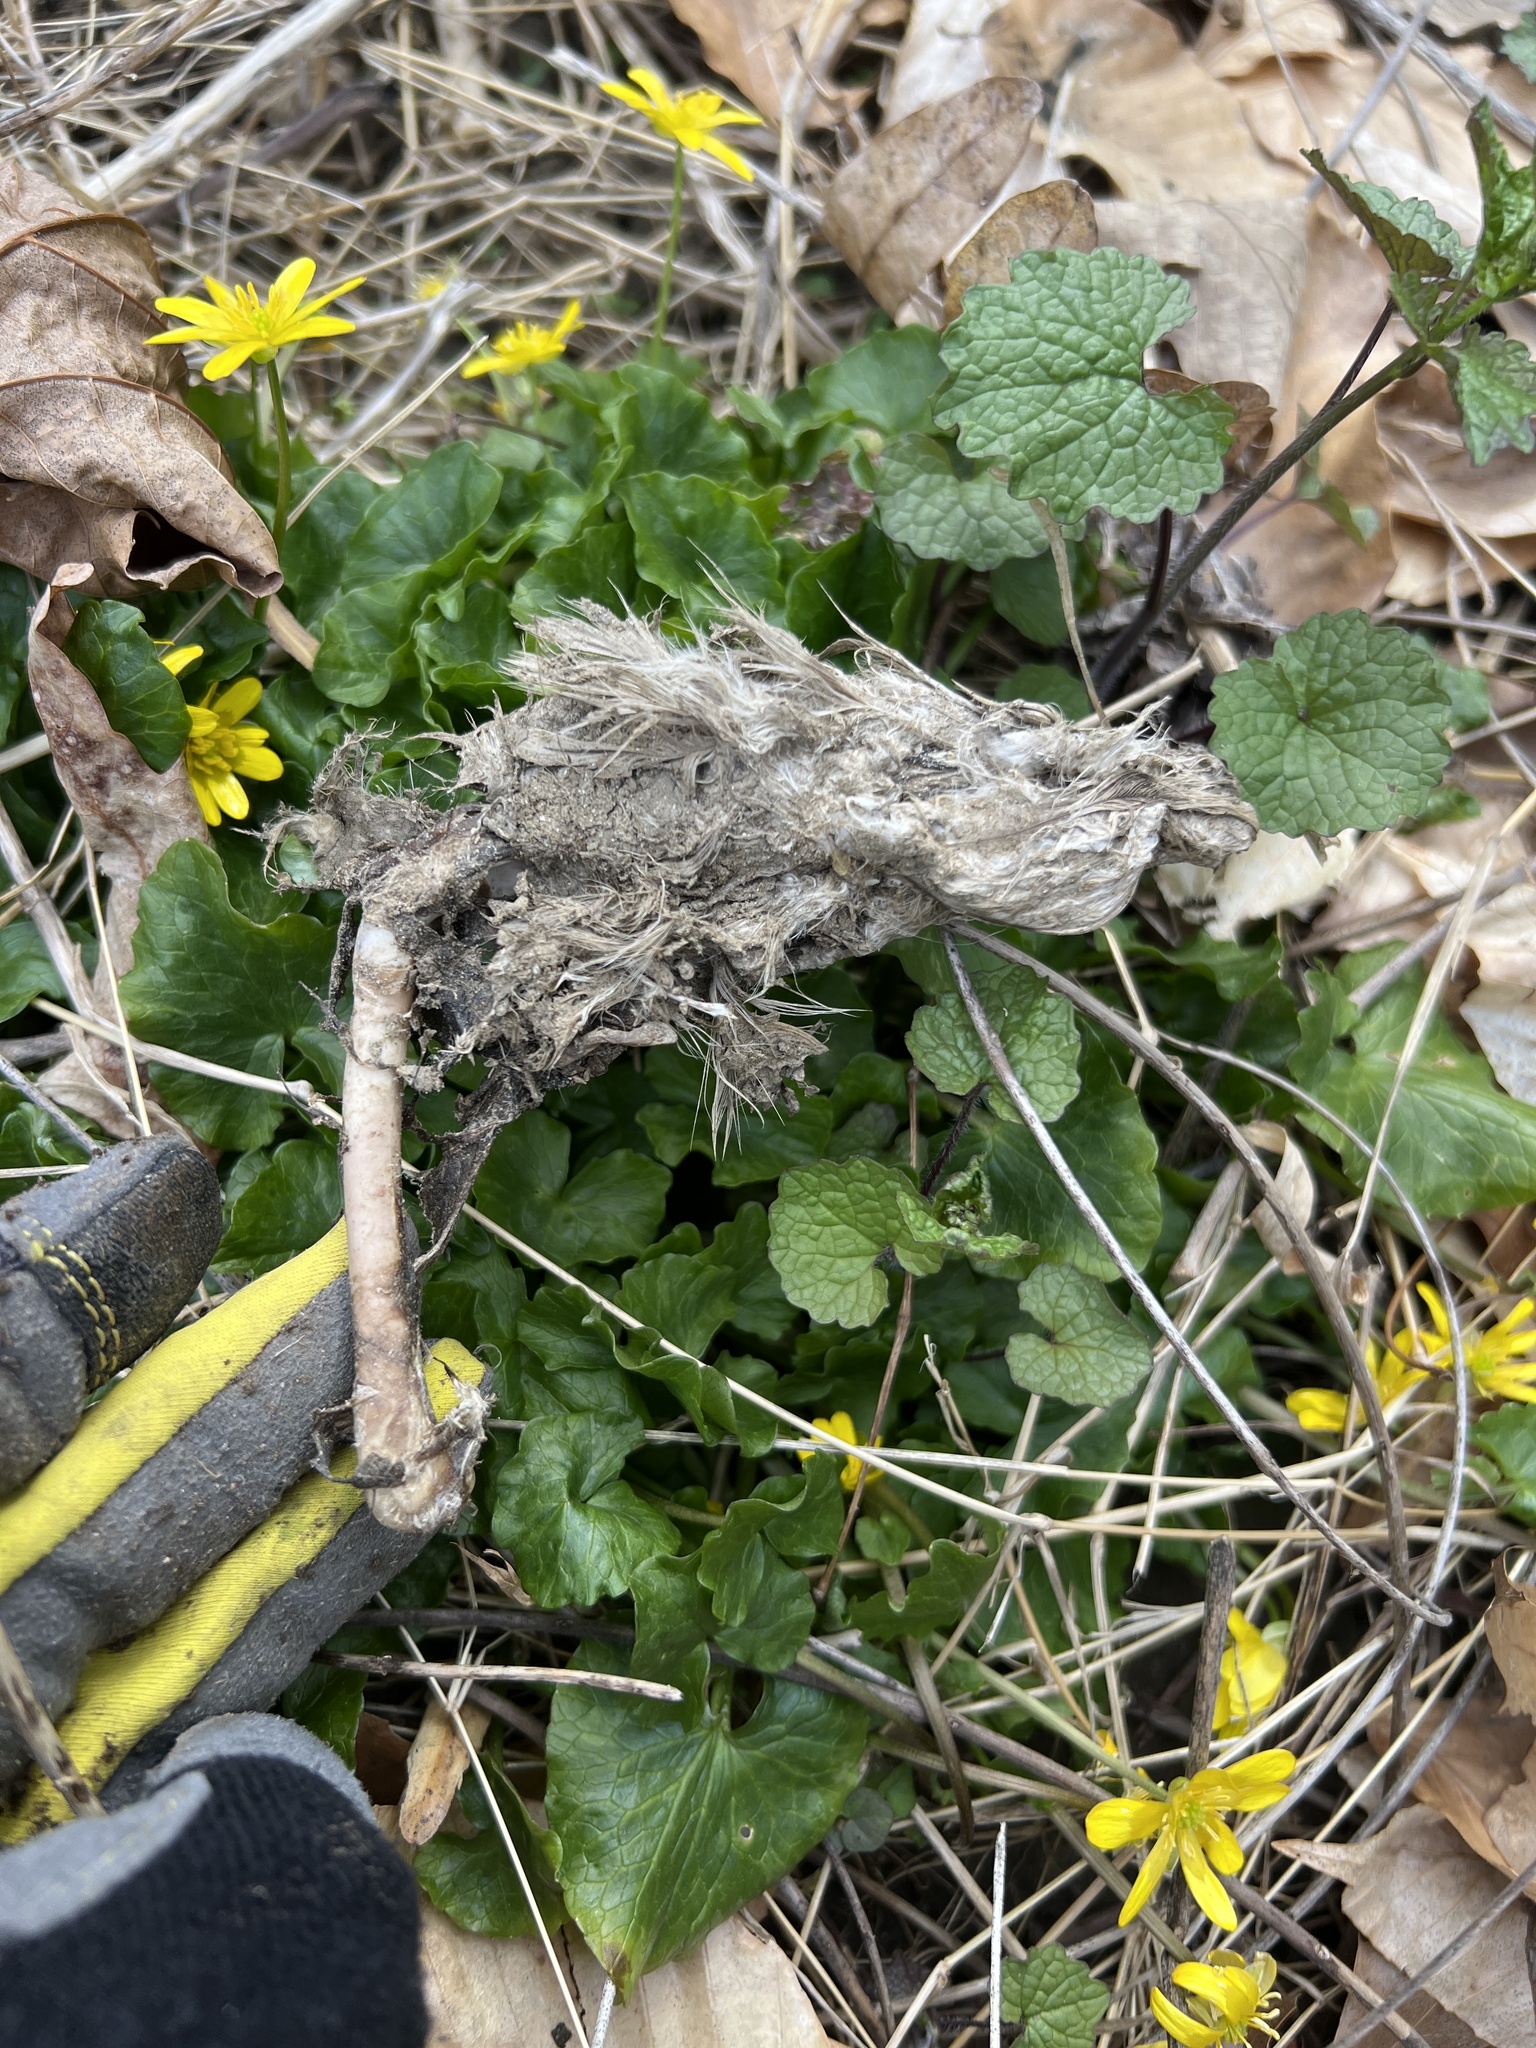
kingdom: Animalia
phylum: Chordata
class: Aves
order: Accipitriformes
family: Accipitridae
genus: Accipiter
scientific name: Accipiter cooperii
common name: Cooper's hawk
